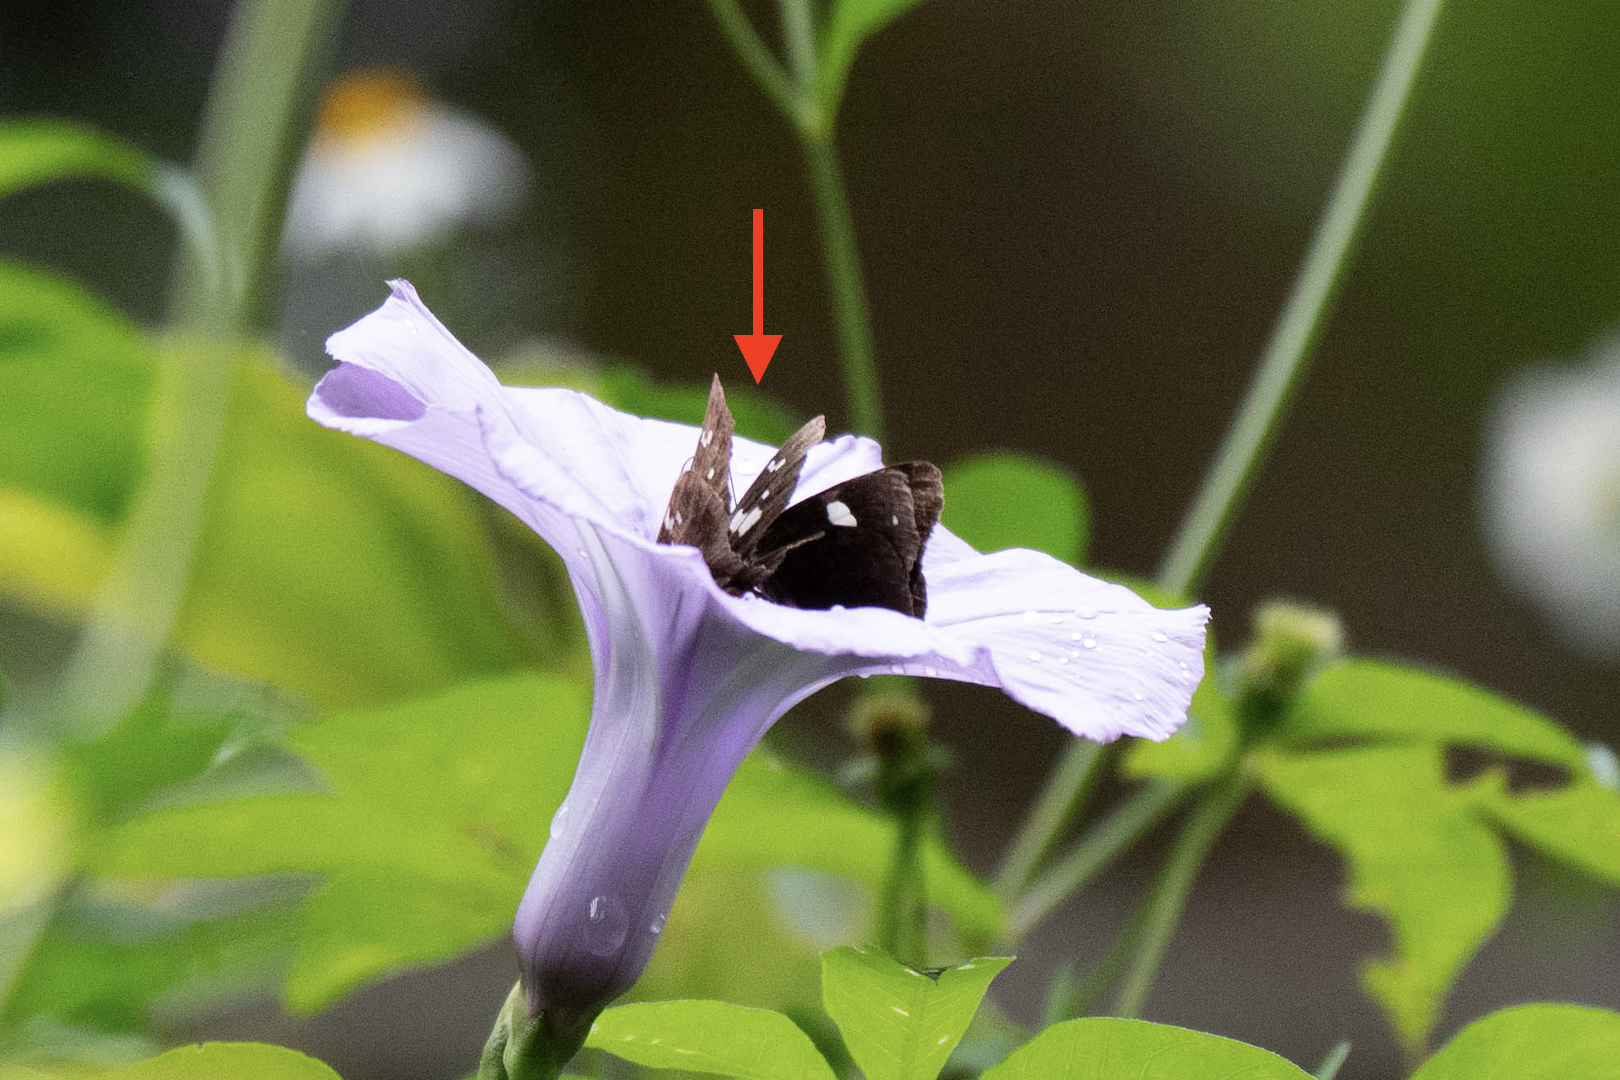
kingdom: Animalia
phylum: Arthropoda
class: Insecta
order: Lepidoptera
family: Hesperiidae
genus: Hyarotis
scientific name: Hyarotis adrastus
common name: Tree flitter
